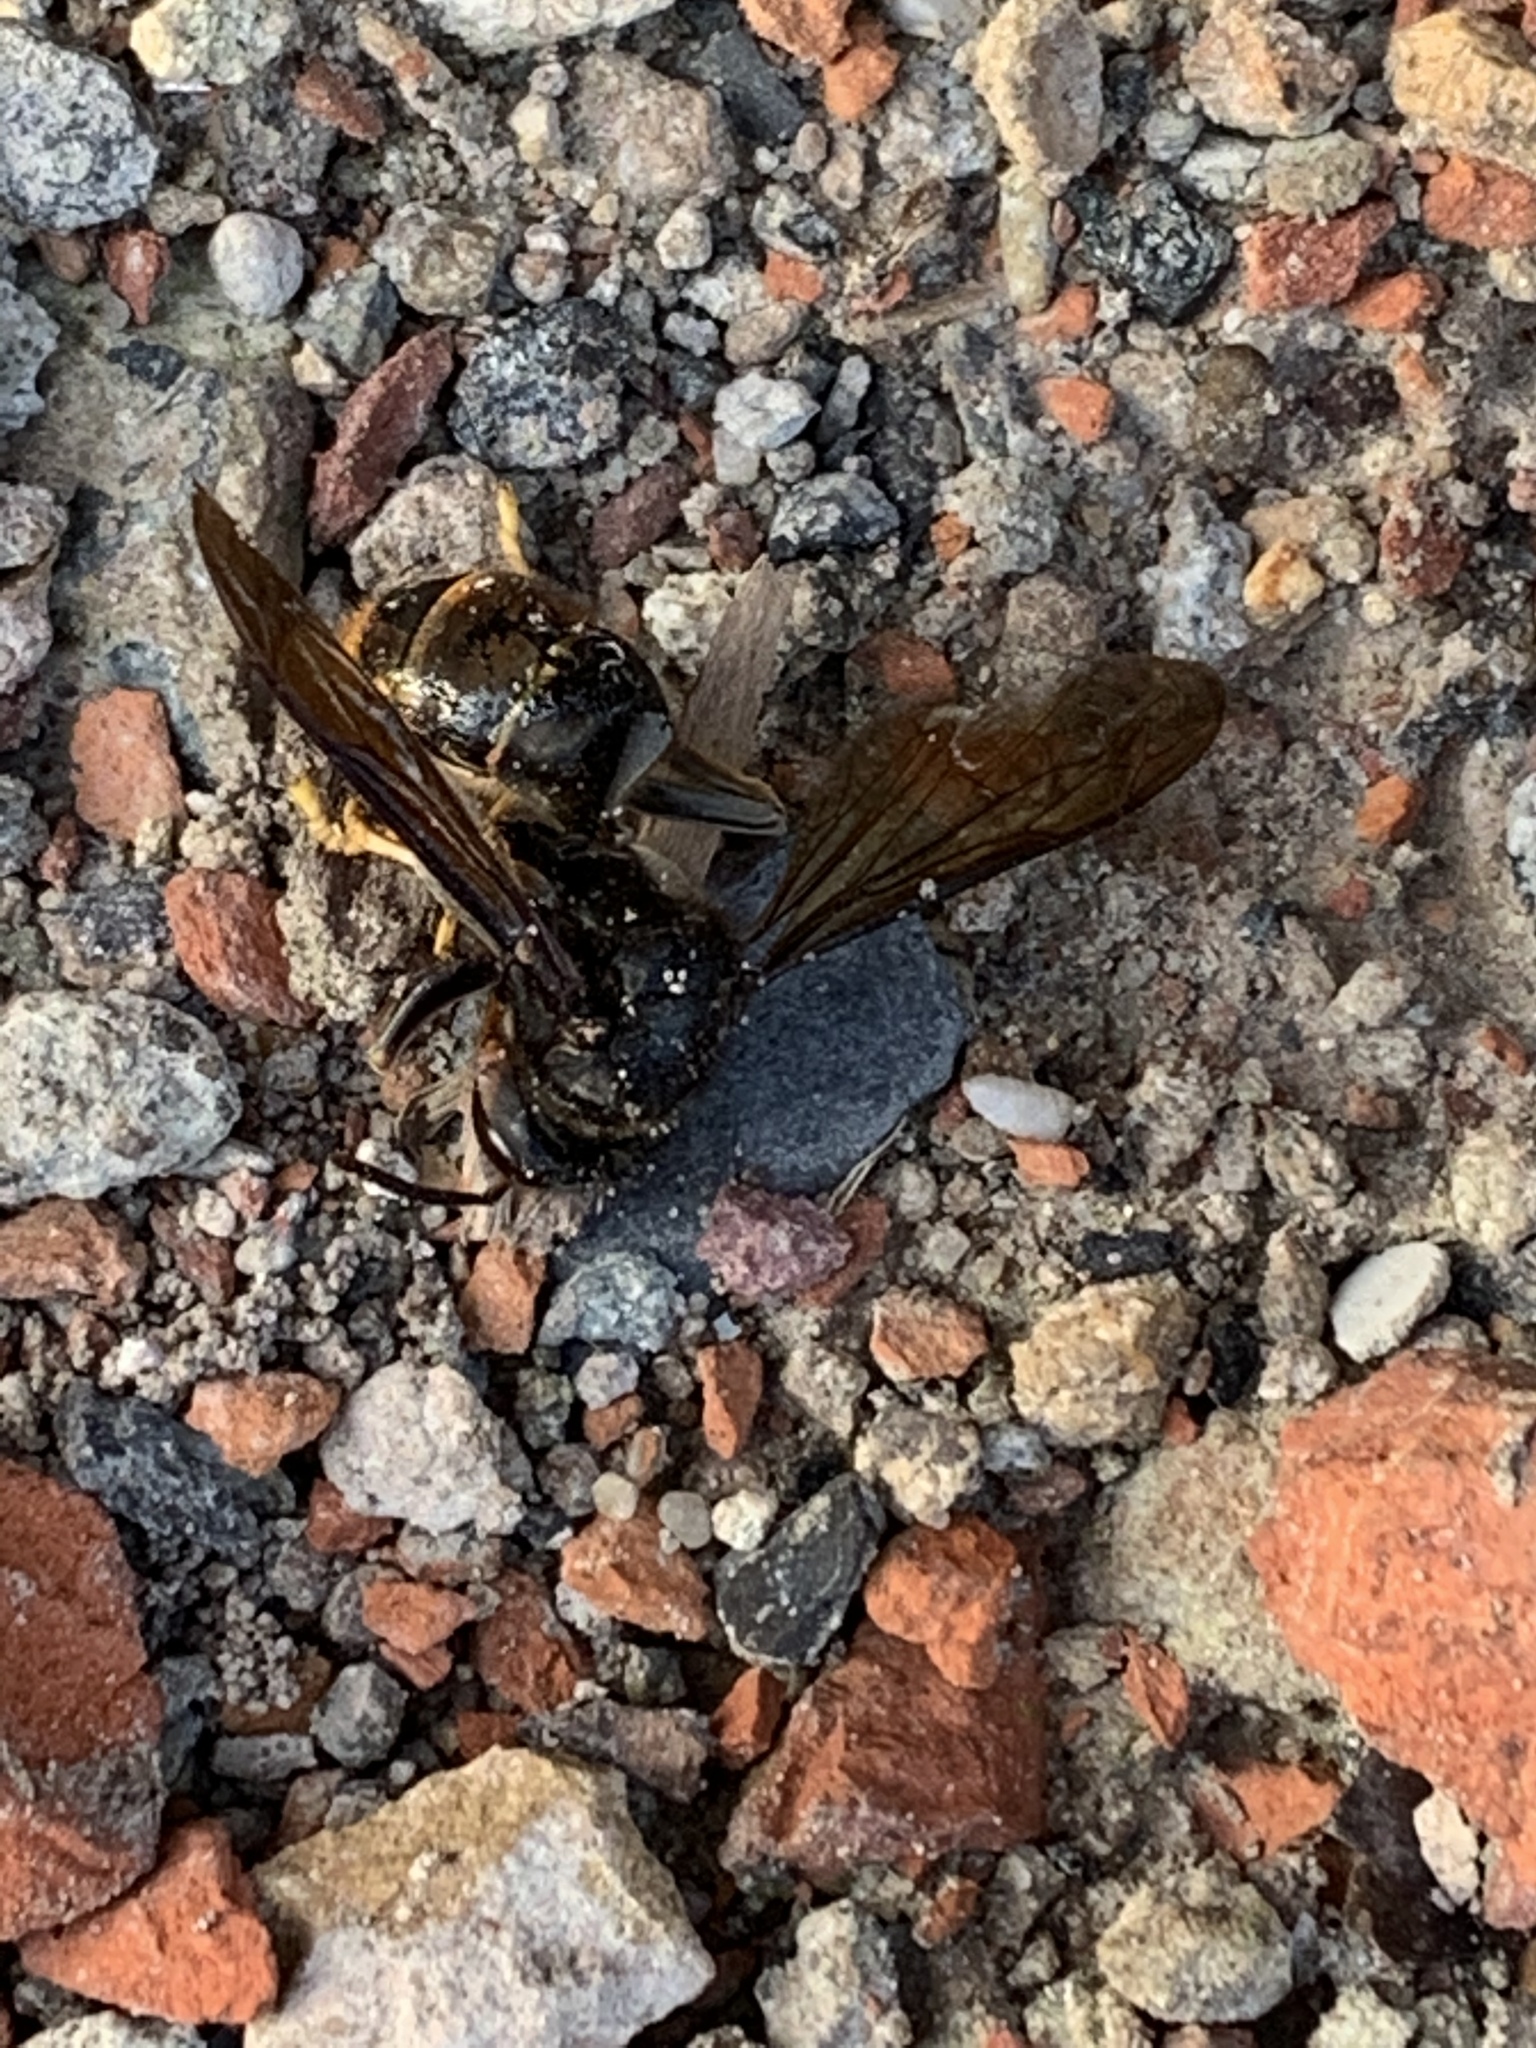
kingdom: Animalia
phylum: Arthropoda
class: Insecta
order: Hymenoptera
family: Vespidae
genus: Vespa
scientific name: Vespa velutina
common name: Asian hornet
